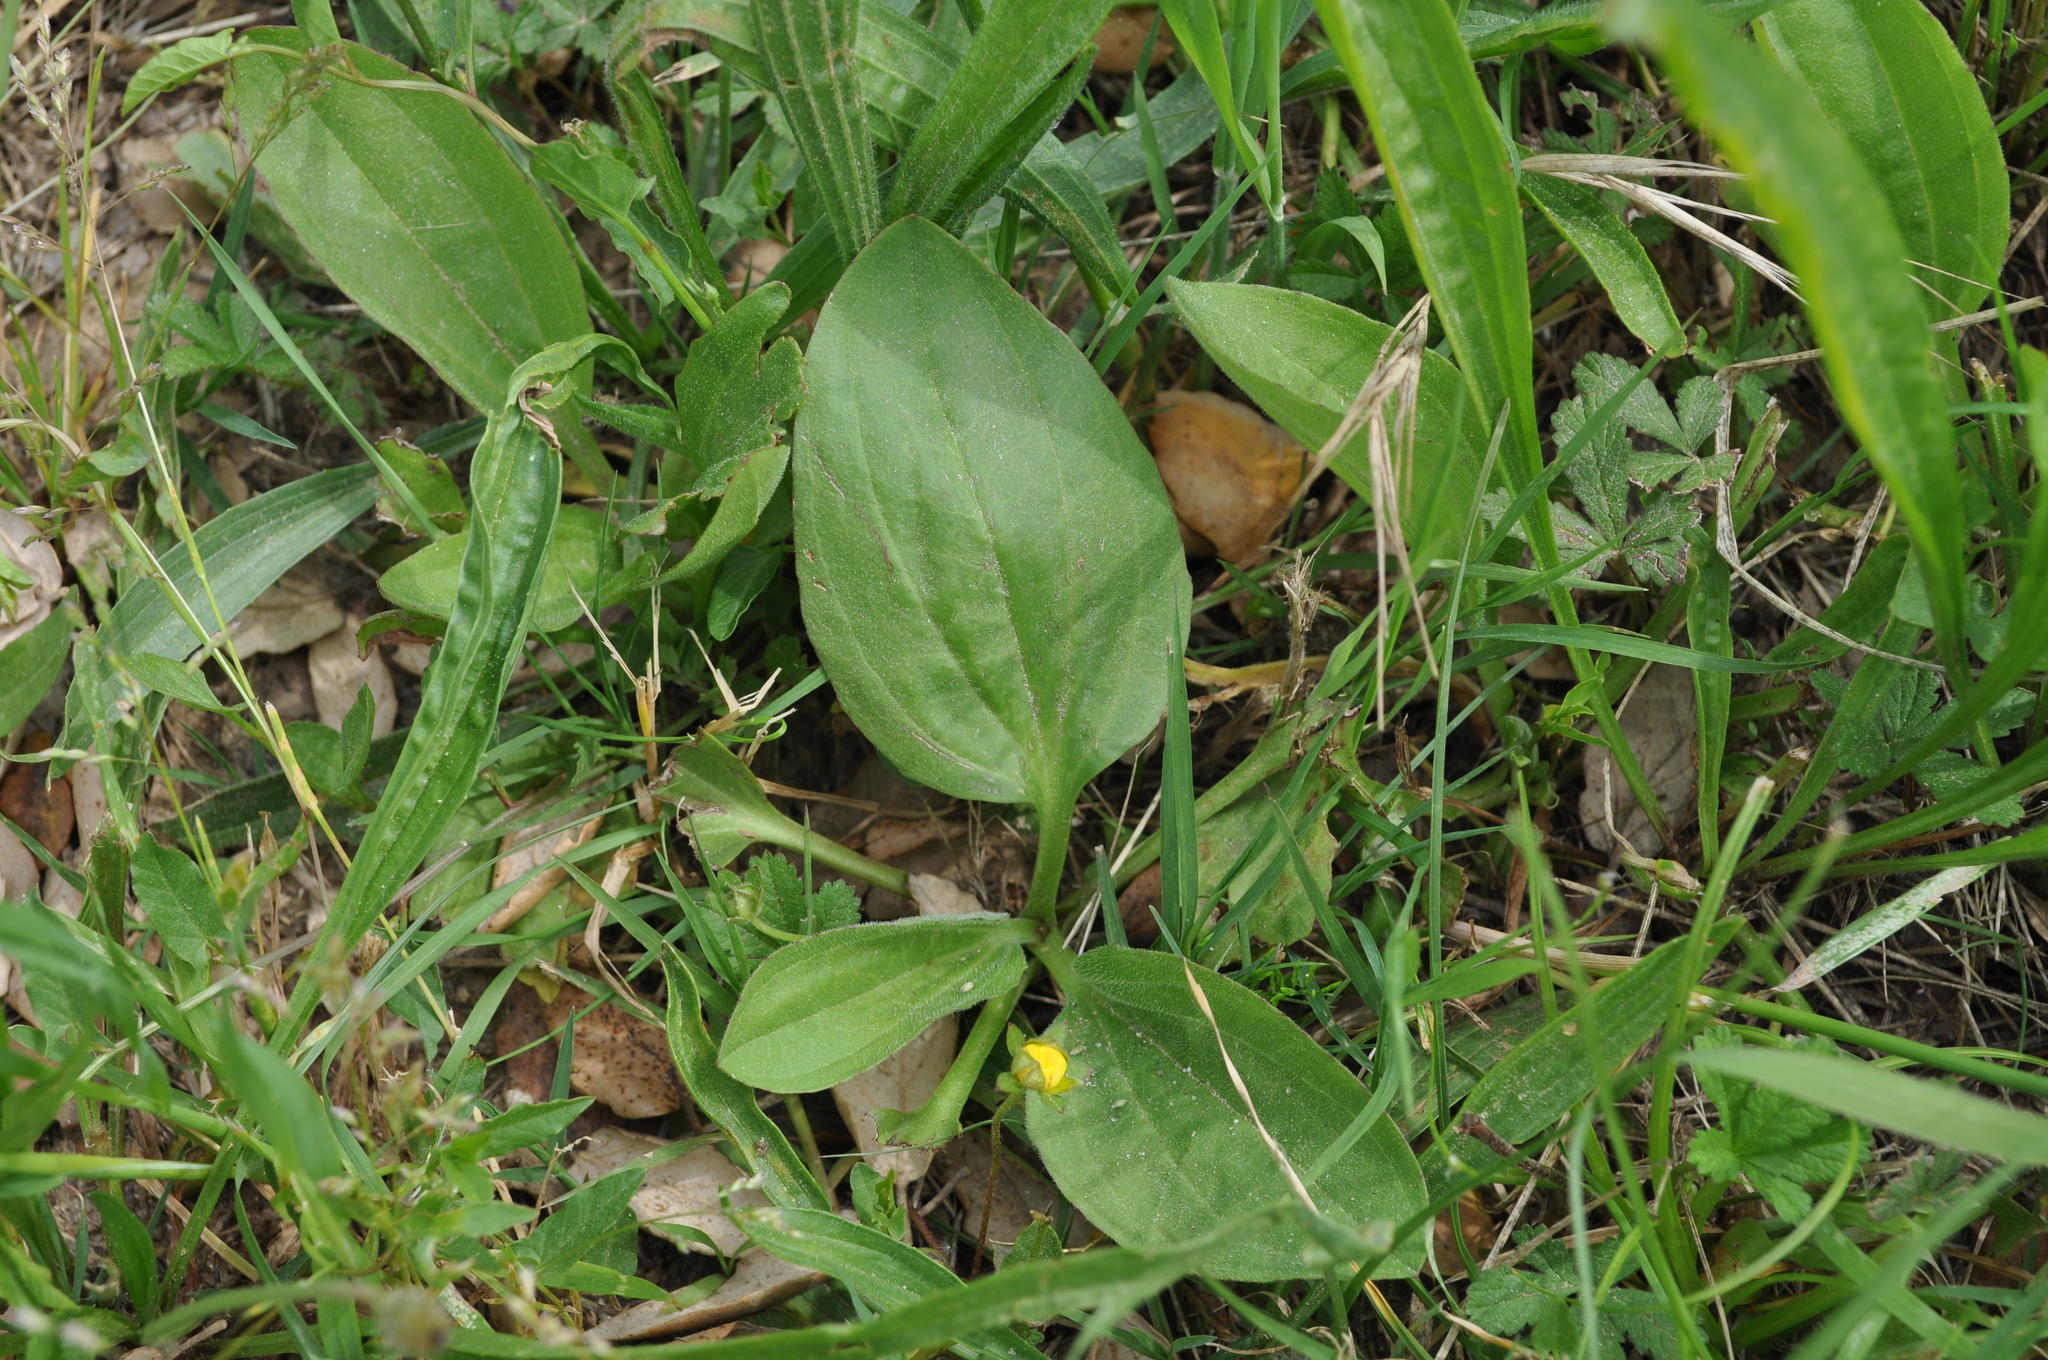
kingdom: Plantae
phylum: Tracheophyta
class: Magnoliopsida
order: Lamiales
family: Plantaginaceae
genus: Plantago
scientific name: Plantago major
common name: Common plantain
